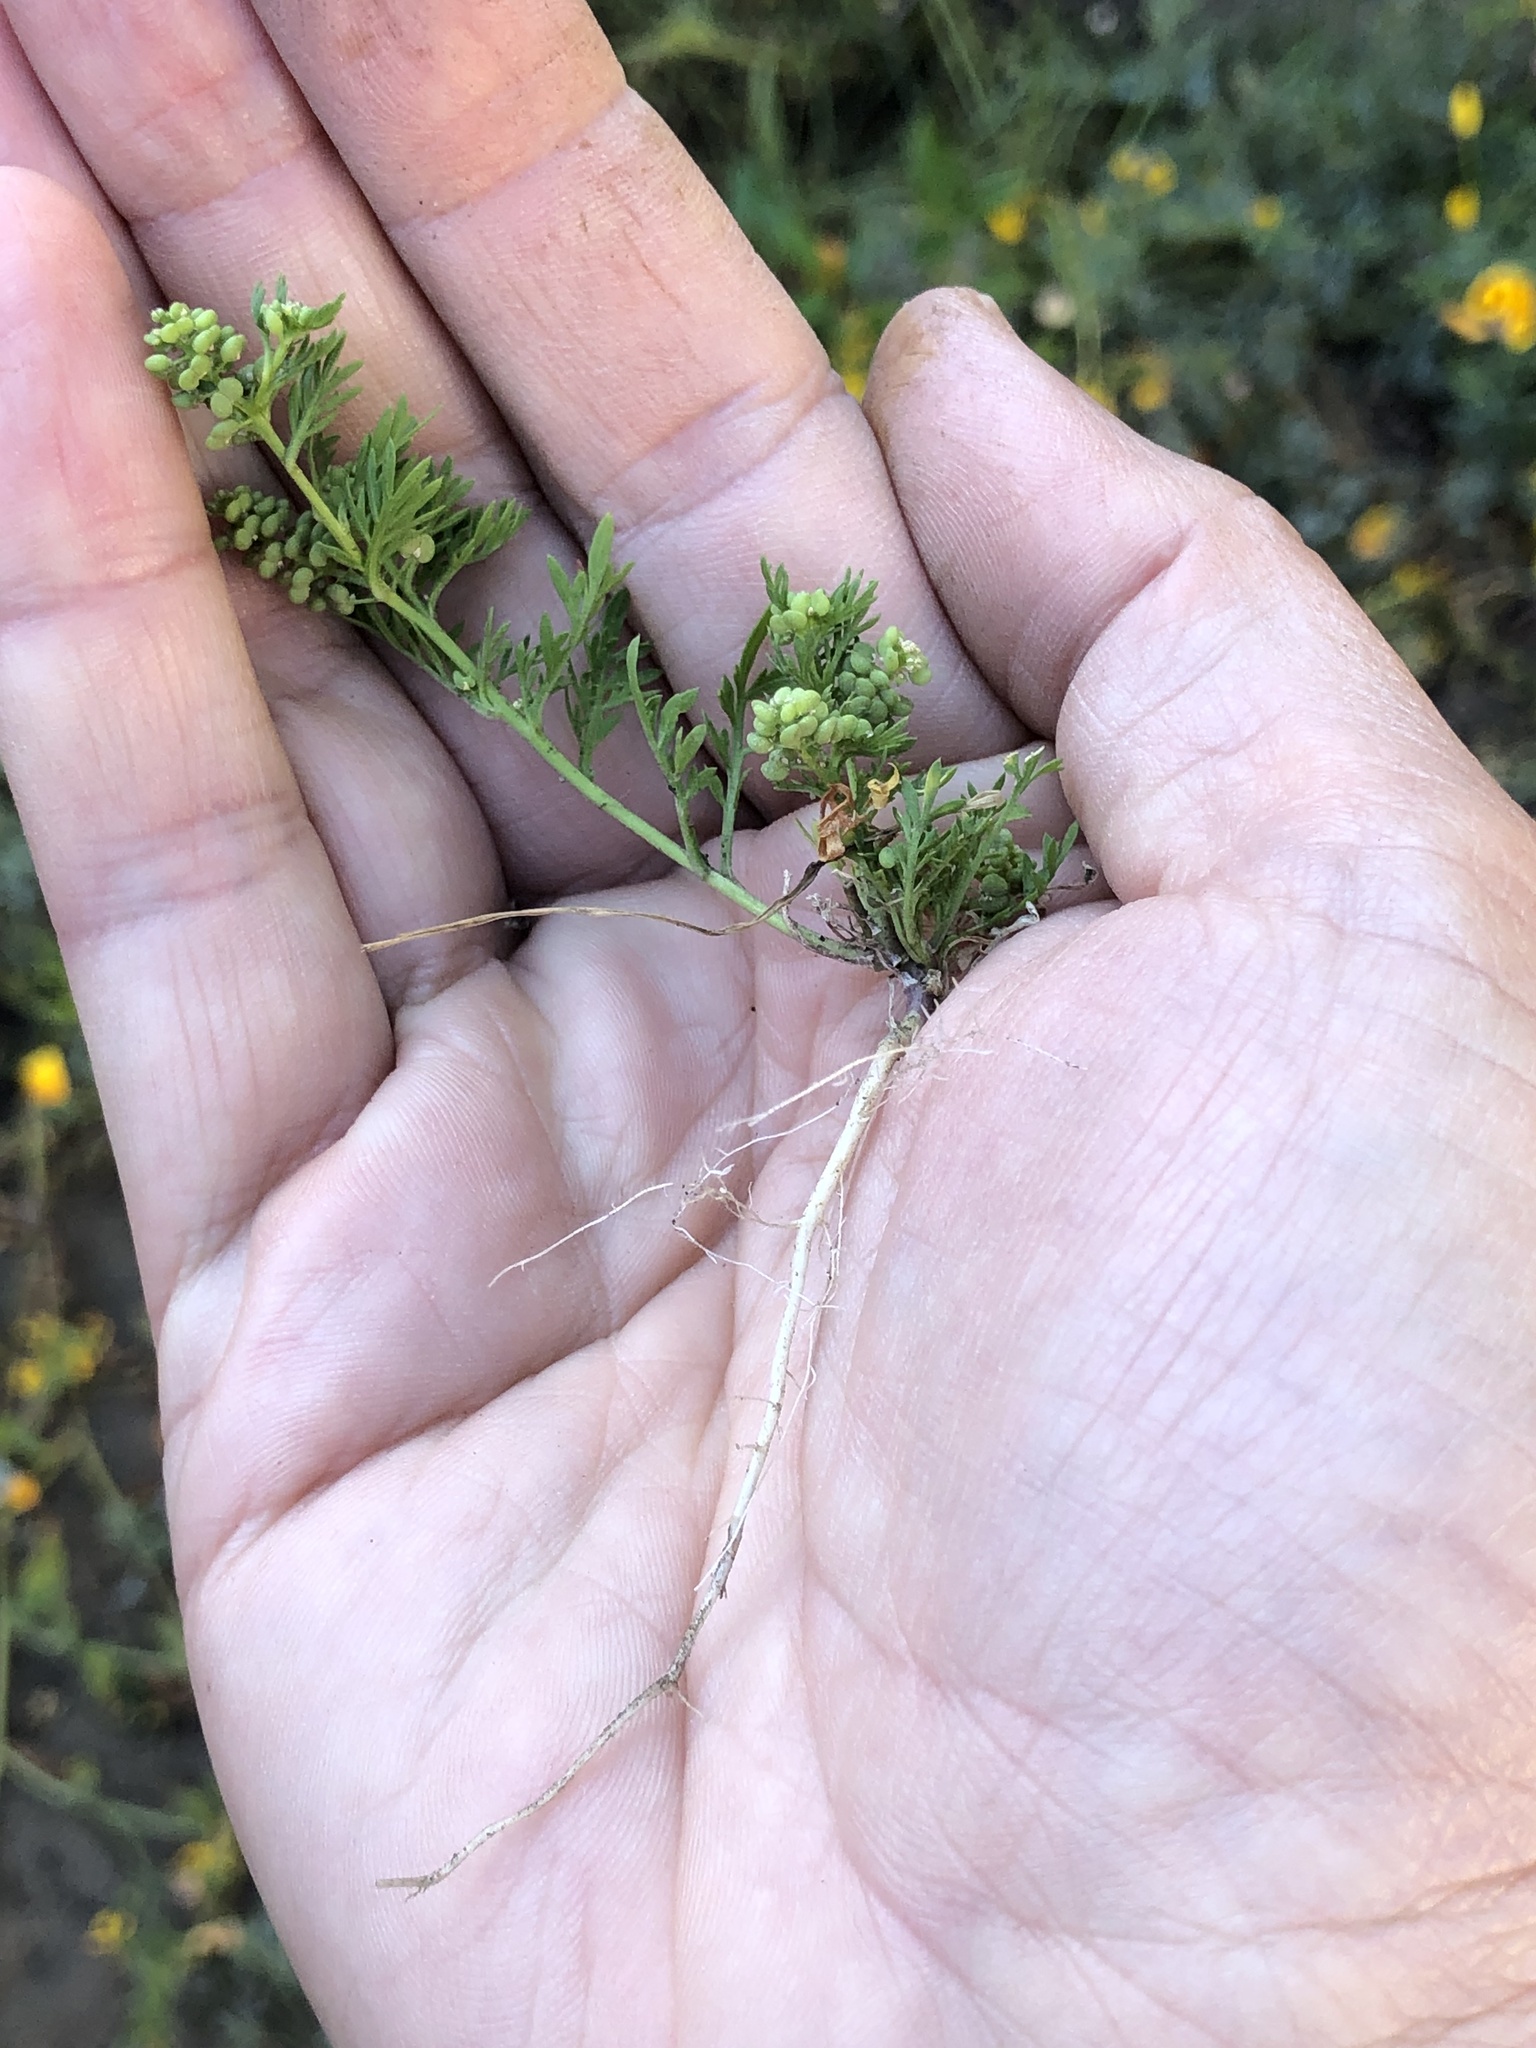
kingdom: Plantae
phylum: Tracheophyta
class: Magnoliopsida
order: Brassicales
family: Brassicaceae
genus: Lepidium
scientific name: Lepidium didymum
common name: Lesser swinecress
